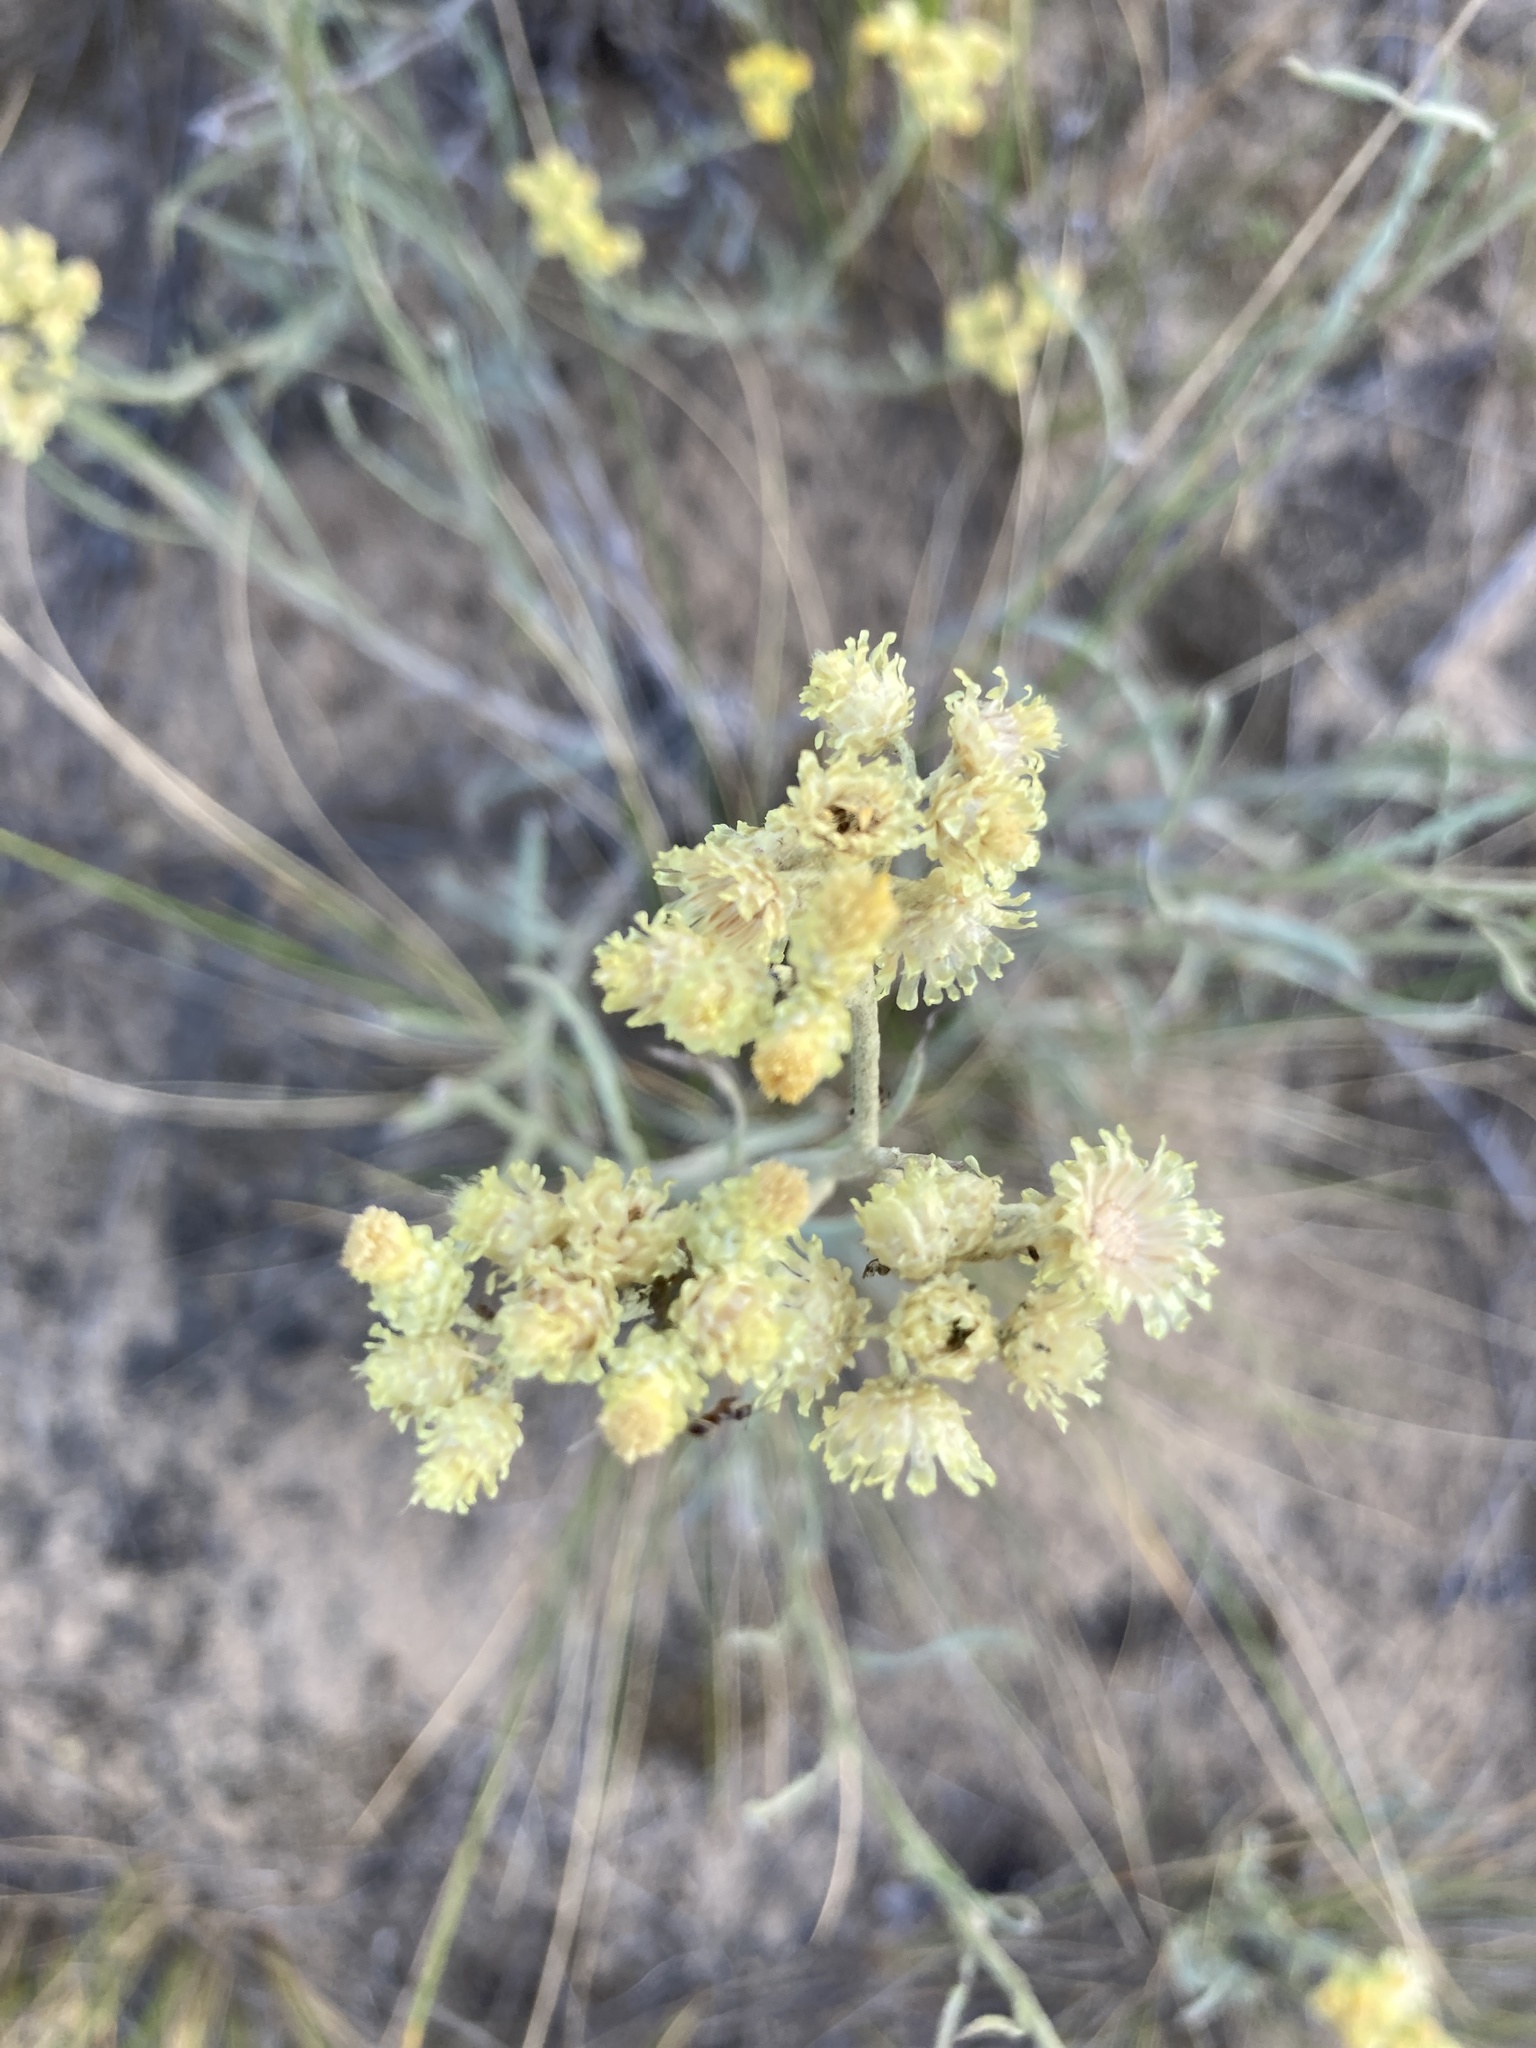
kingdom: Plantae
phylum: Tracheophyta
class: Magnoliopsida
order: Asterales
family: Asteraceae
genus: Helichrysum
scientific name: Helichrysum arenarium
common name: Strawflower
